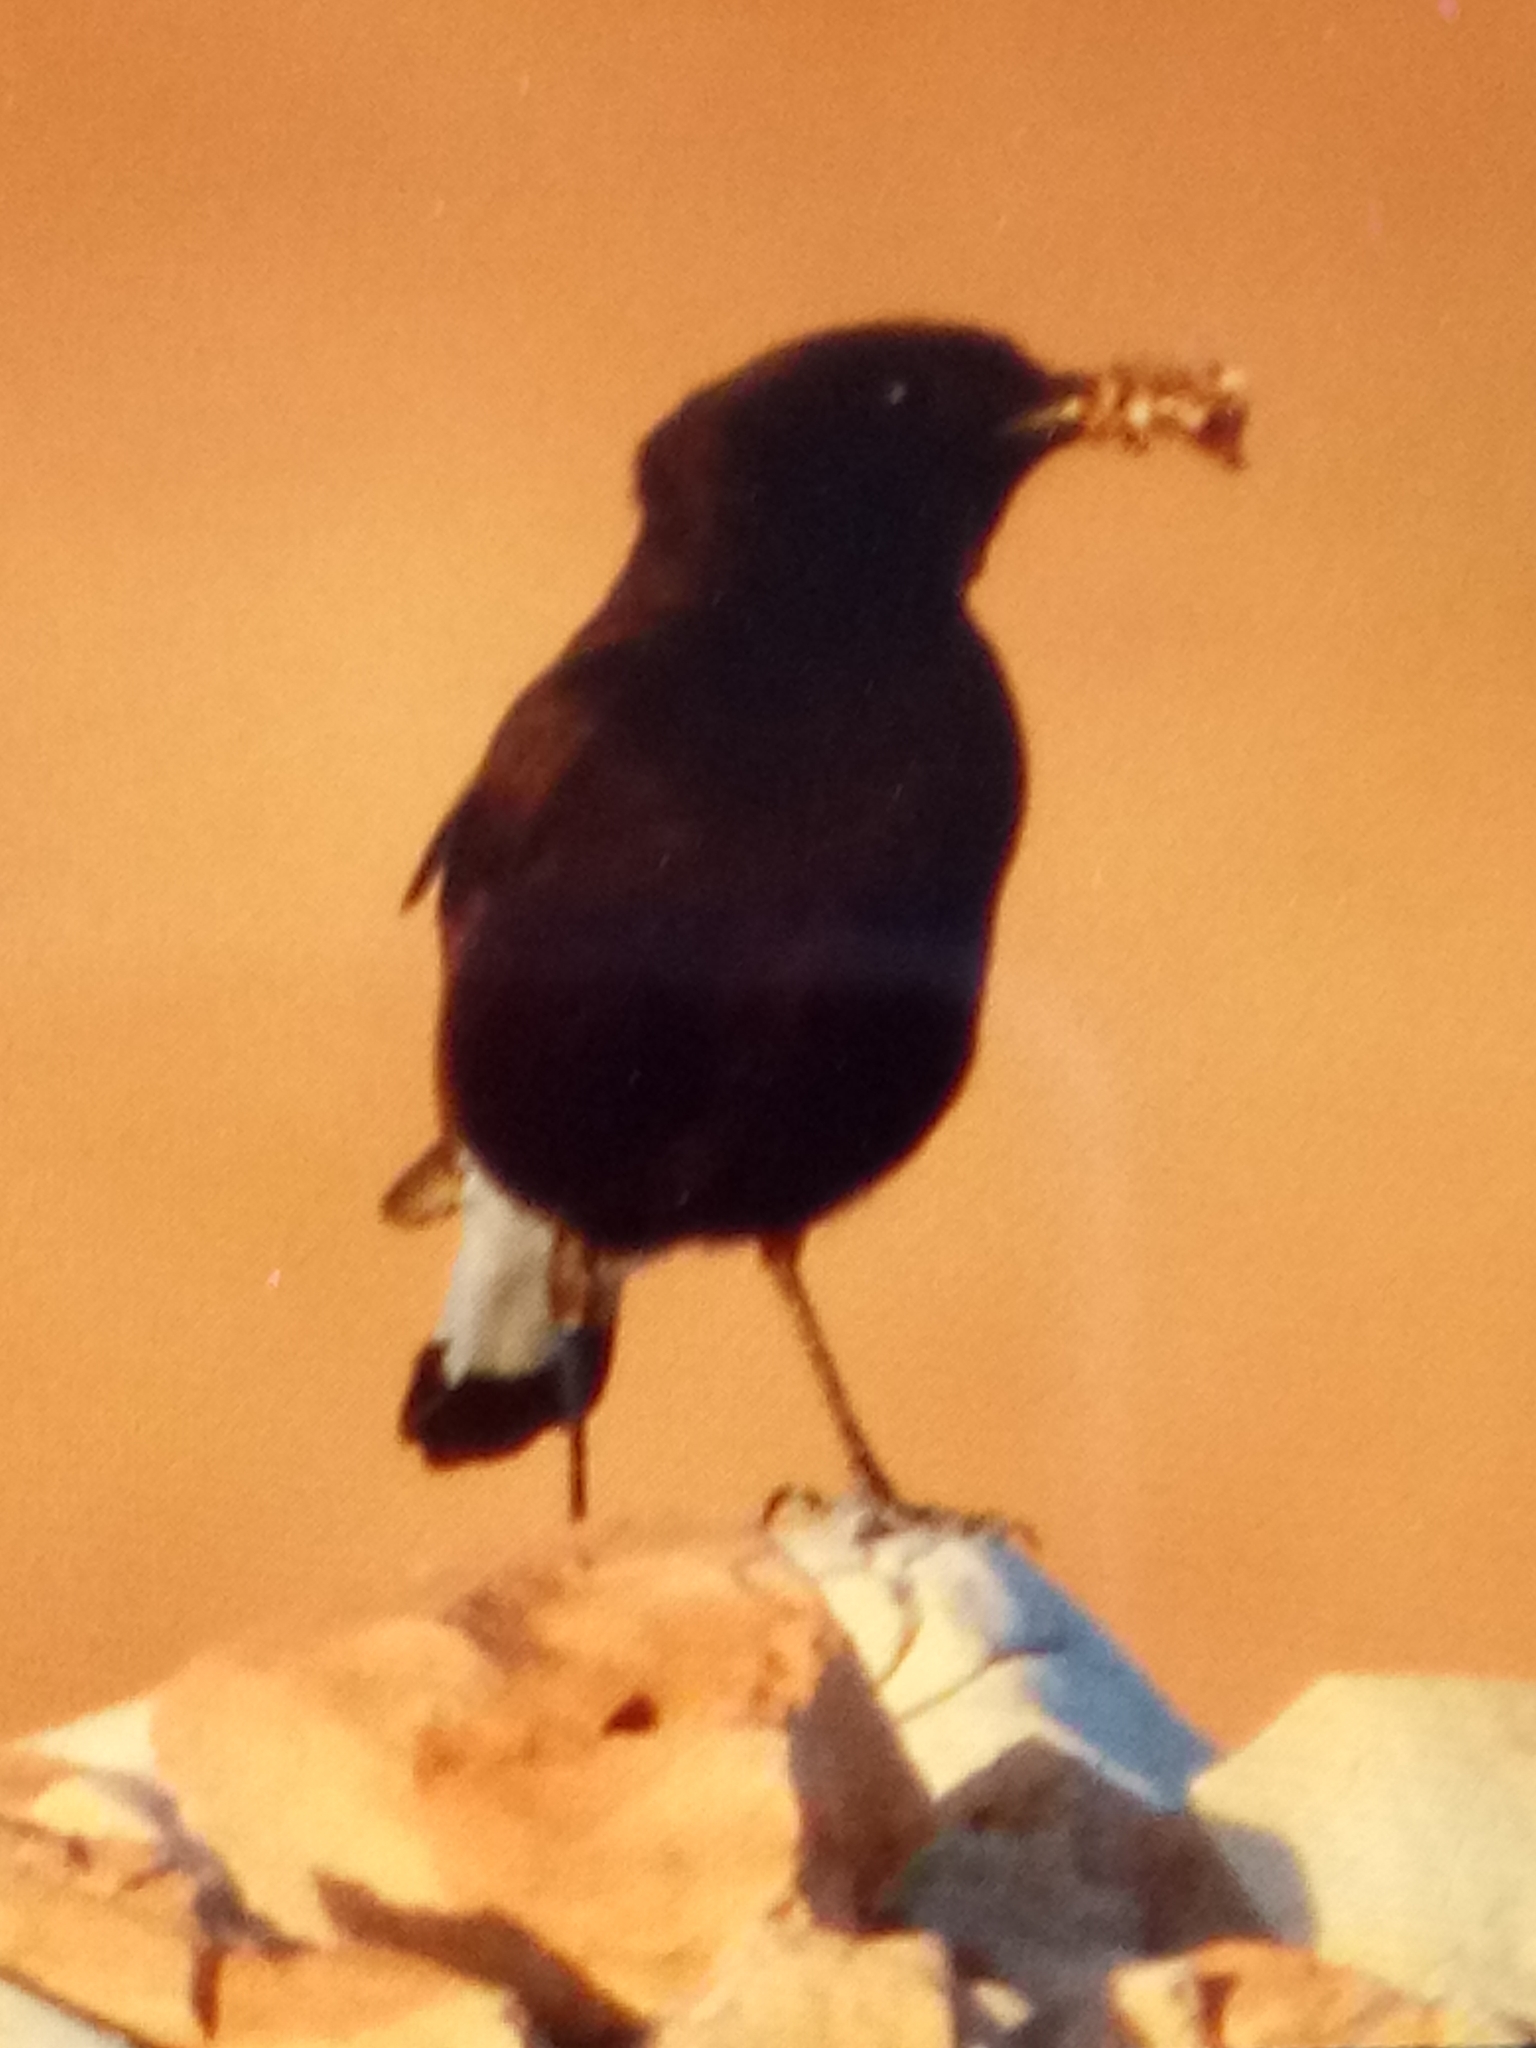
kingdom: Animalia
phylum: Chordata
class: Aves
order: Passeriformes
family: Muscicapidae
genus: Oenanthe
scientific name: Oenanthe leucura
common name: Black wheatear
